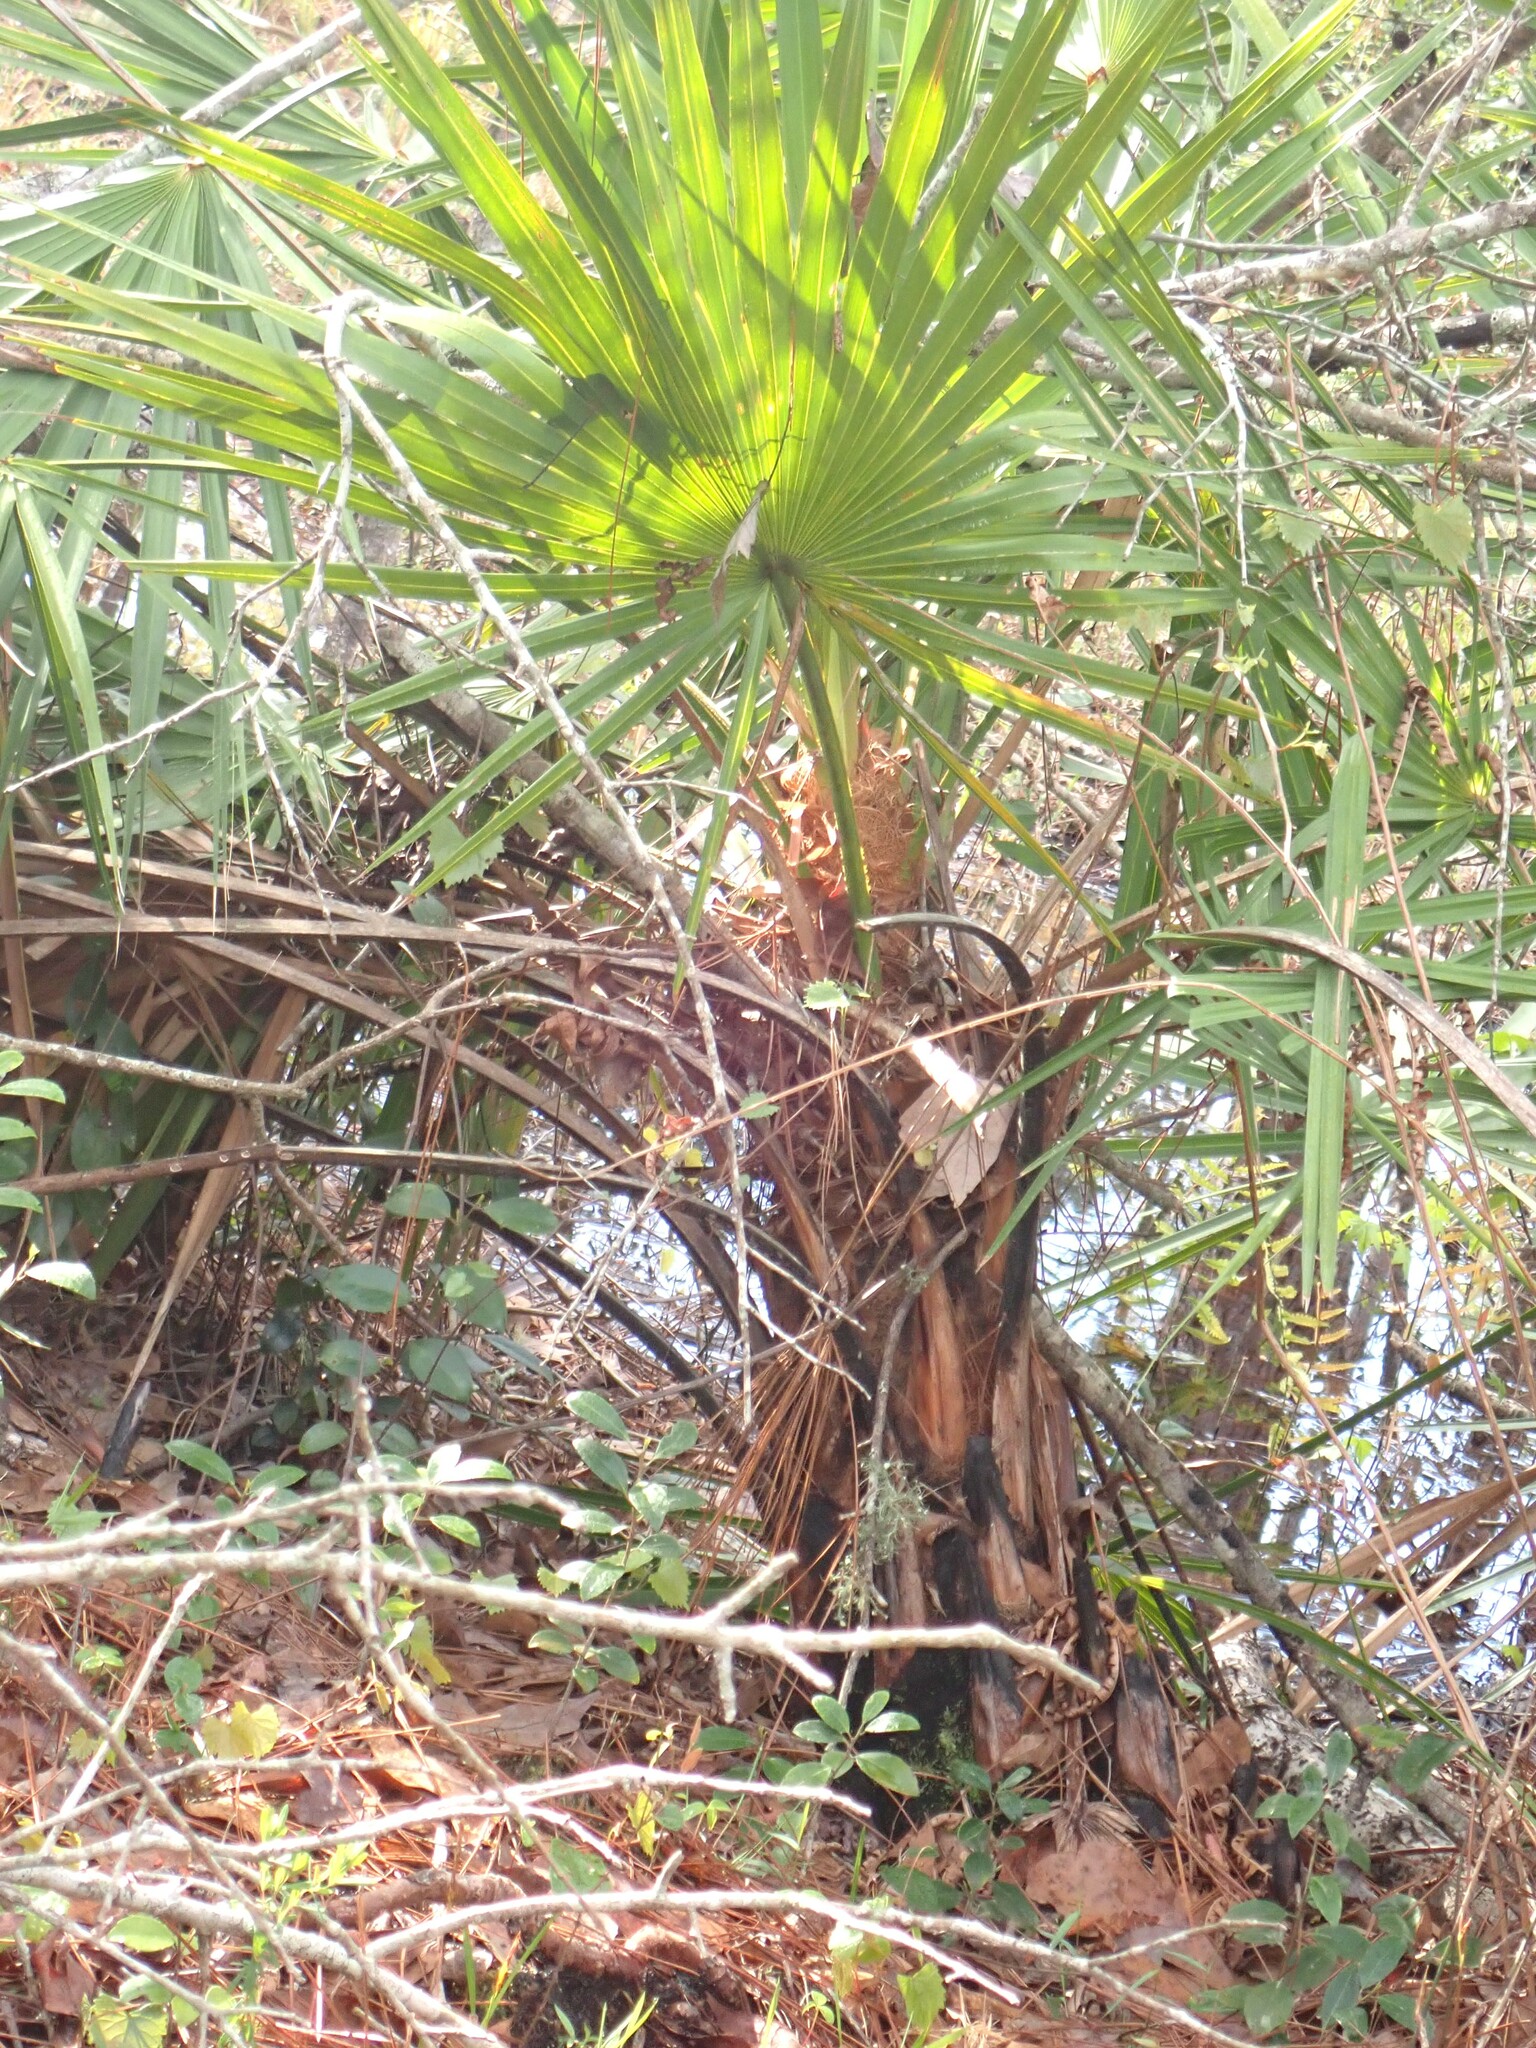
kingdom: Plantae
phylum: Tracheophyta
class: Liliopsida
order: Arecales
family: Arecaceae
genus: Serenoa
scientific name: Serenoa repens
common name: Saw-palmetto
